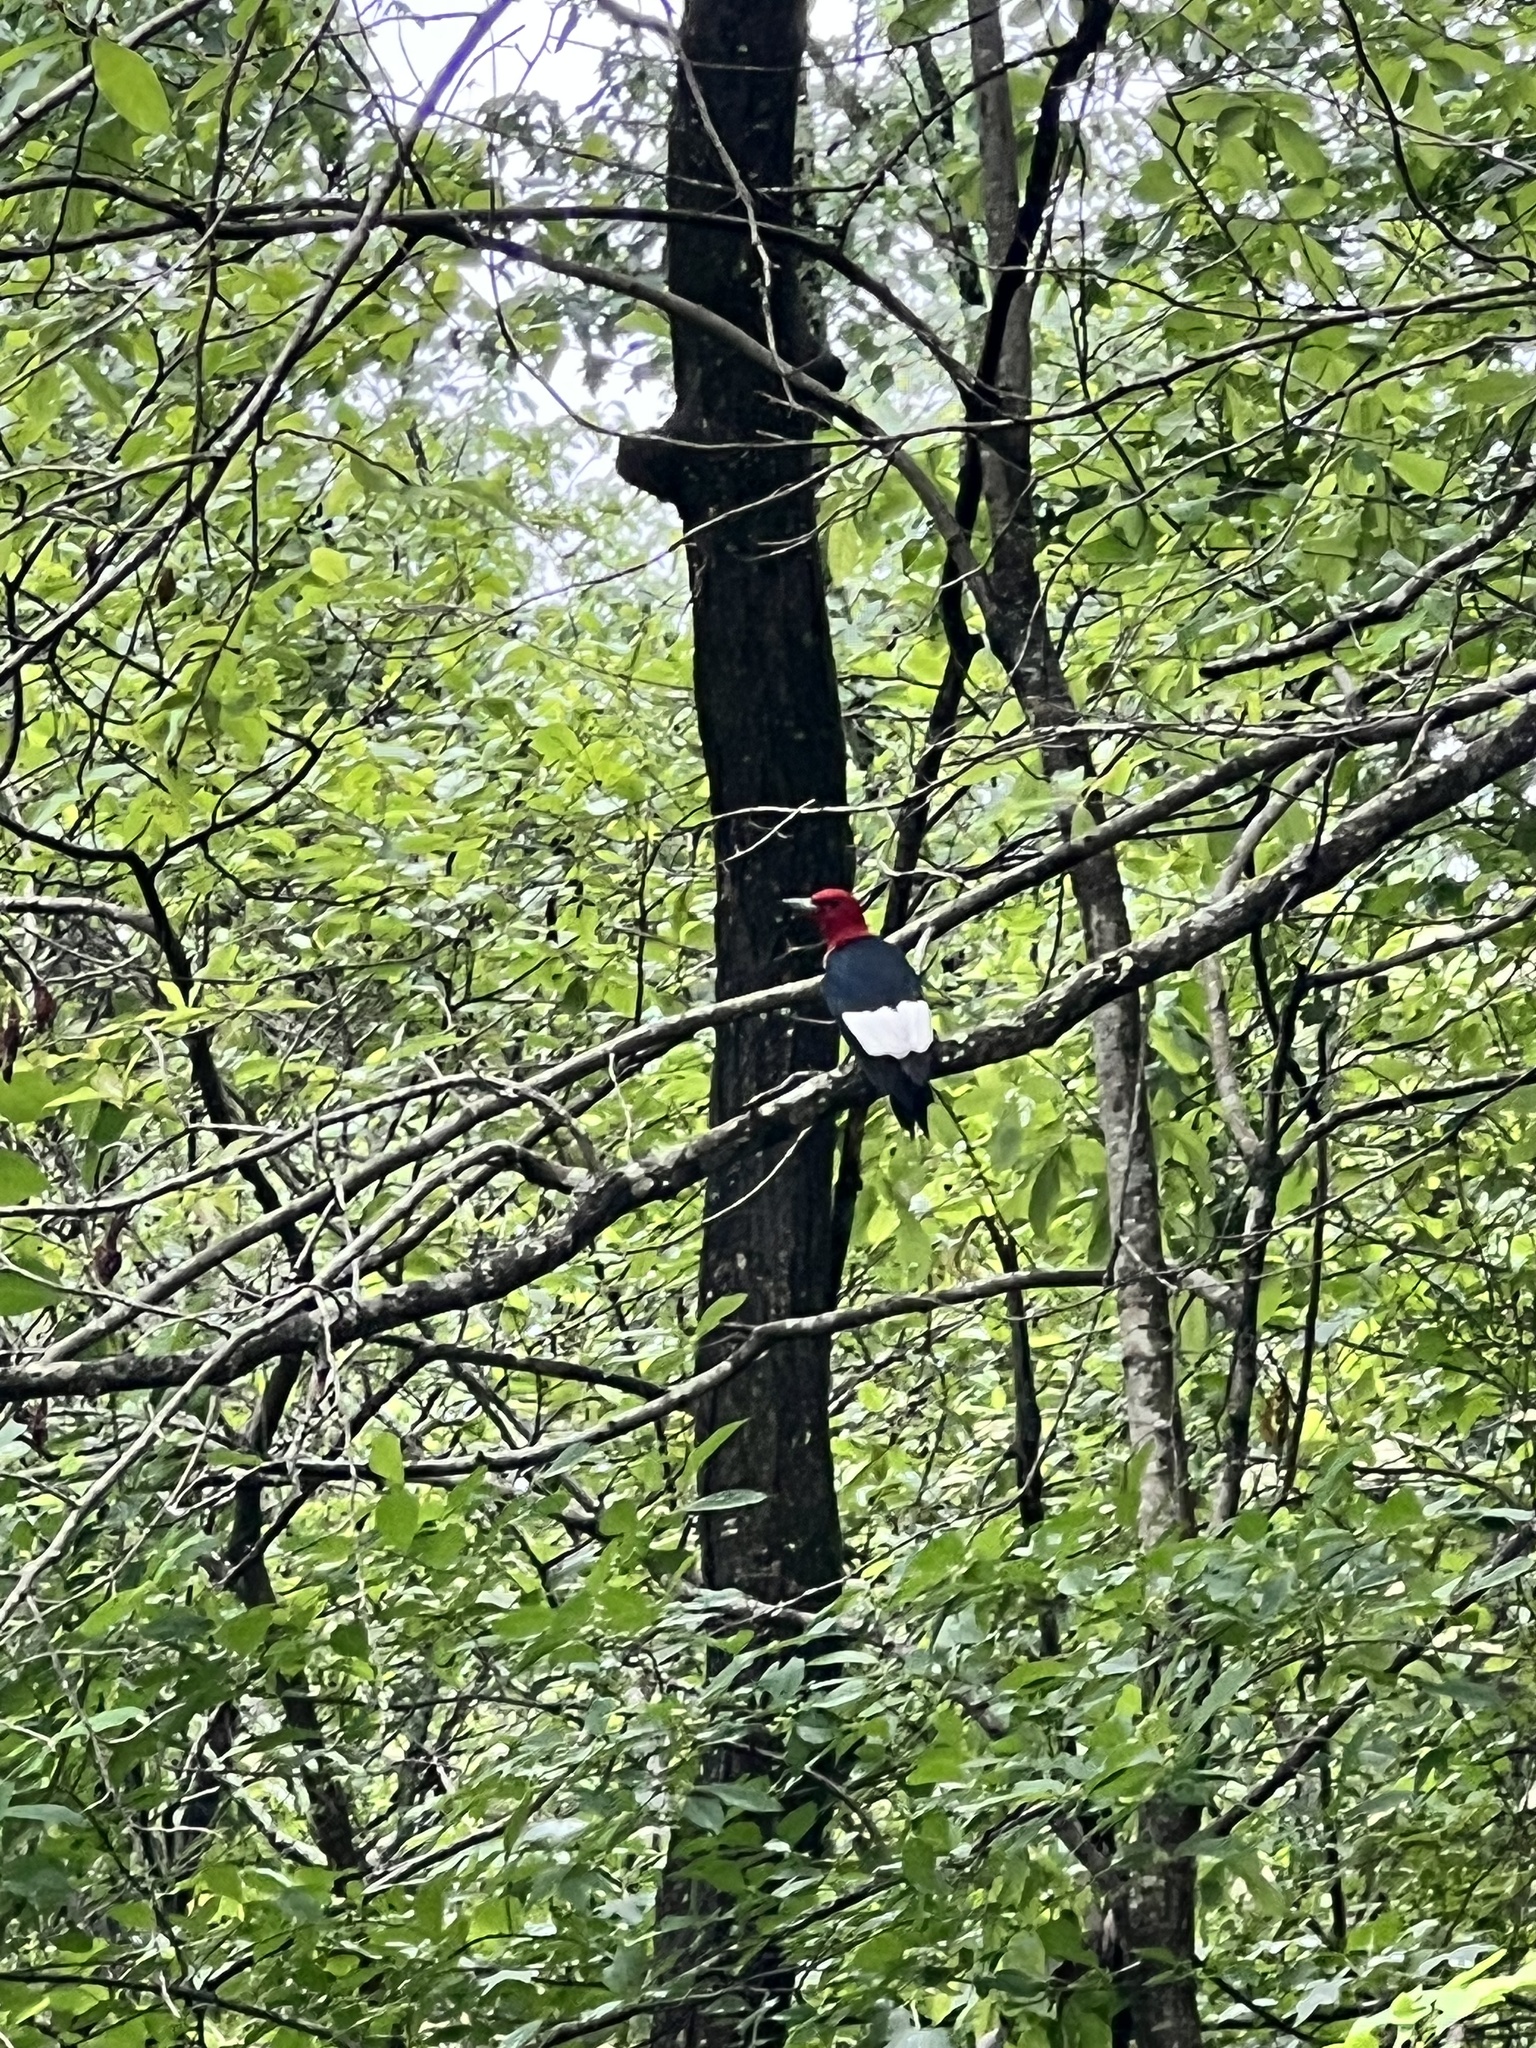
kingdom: Animalia
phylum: Chordata
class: Aves
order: Piciformes
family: Picidae
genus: Melanerpes
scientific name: Melanerpes erythrocephalus
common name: Red-headed woodpecker
